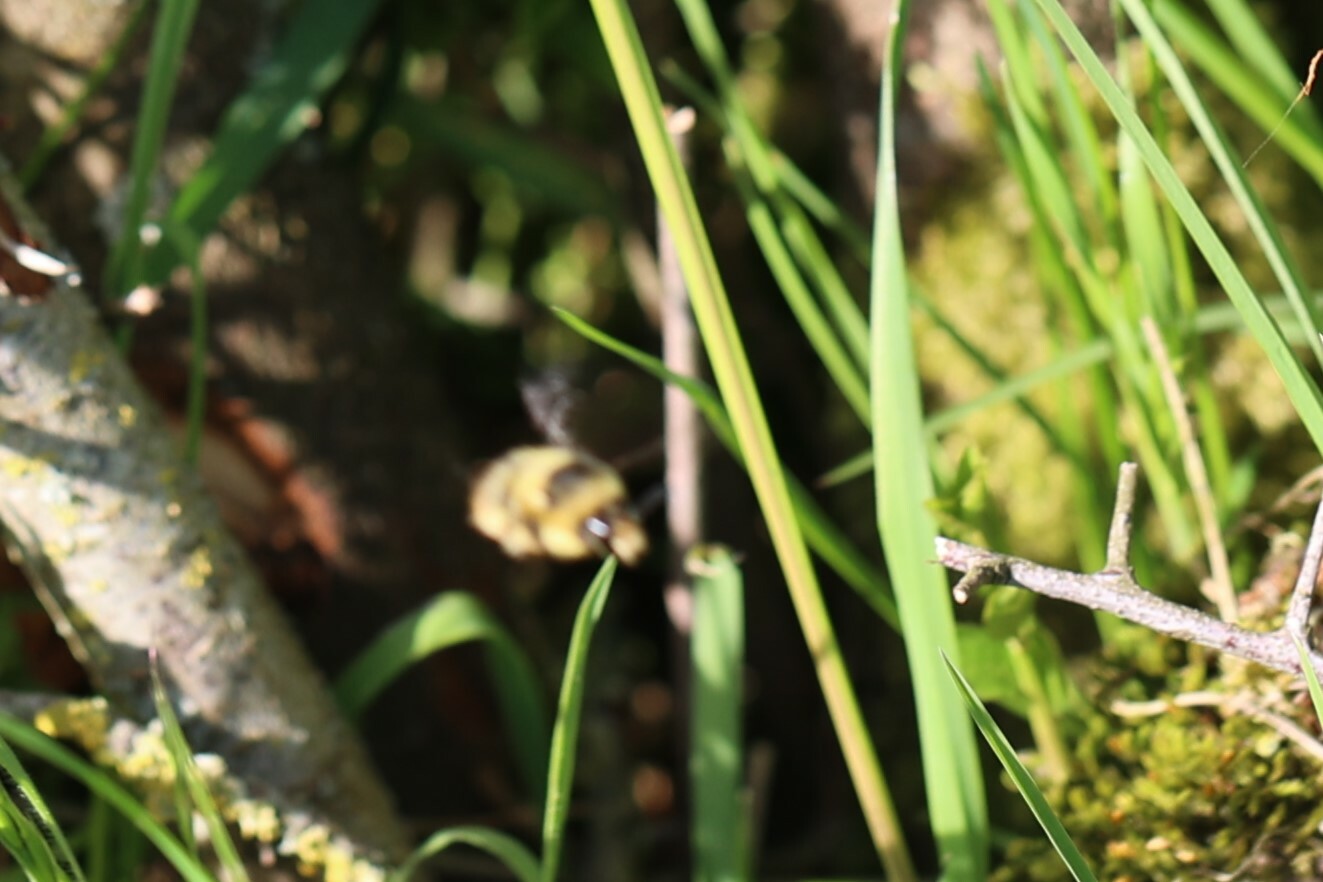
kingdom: Animalia
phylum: Arthropoda
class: Insecta
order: Hymenoptera
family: Apidae
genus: Bombus
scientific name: Bombus sylvarum
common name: Shrill carder bee
